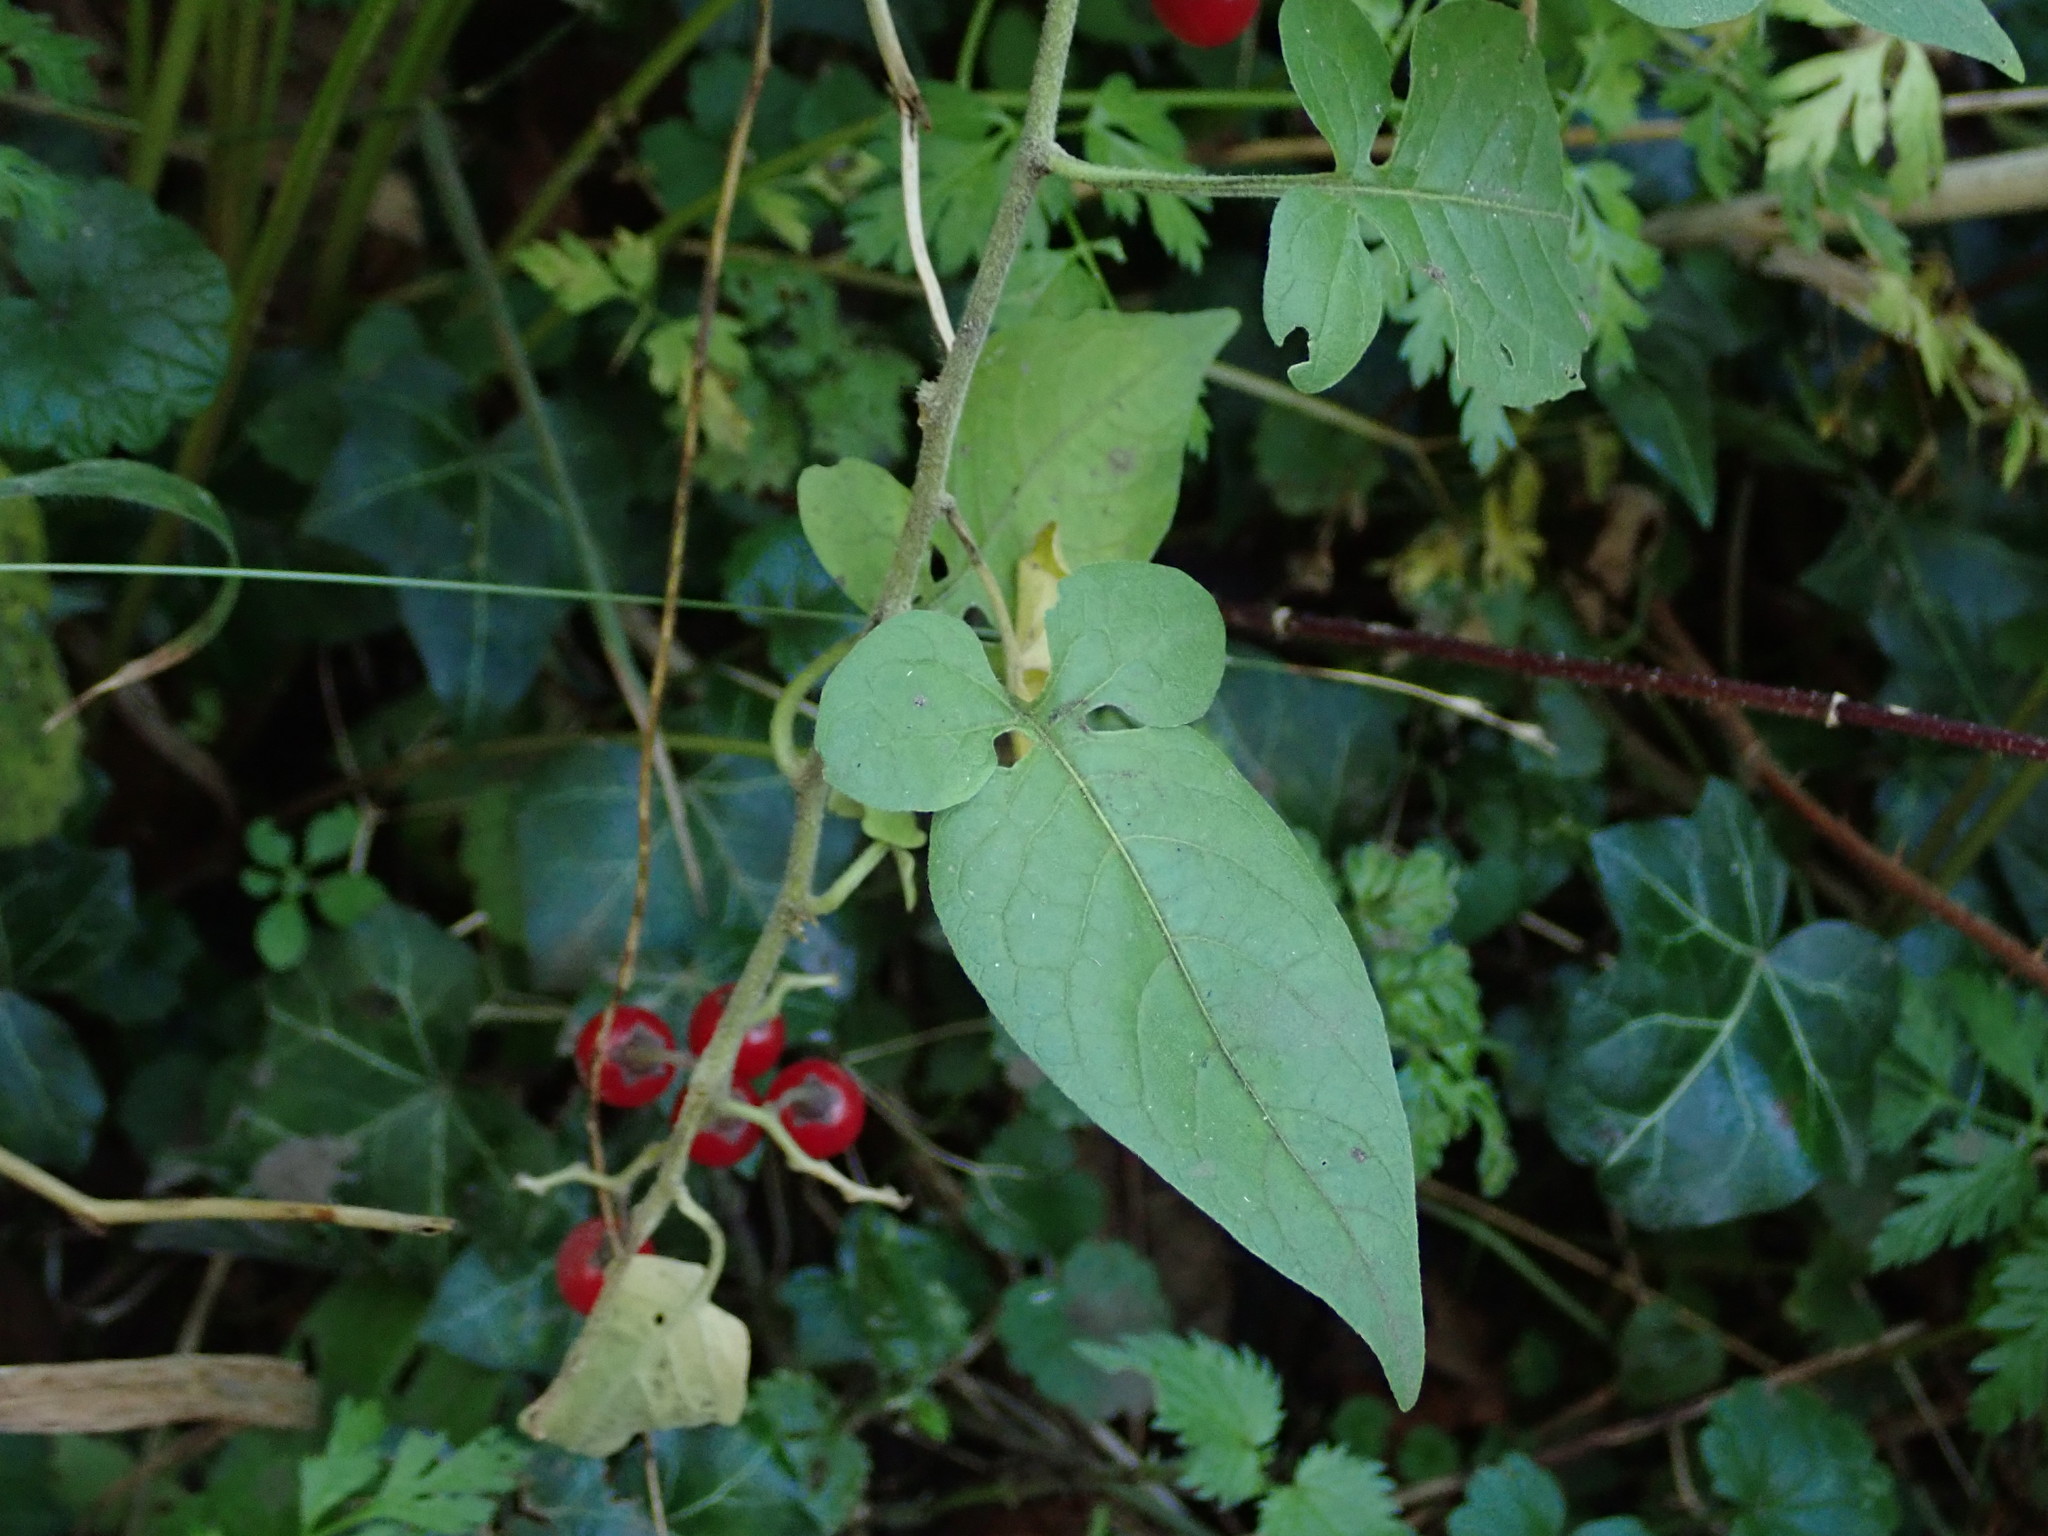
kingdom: Plantae
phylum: Tracheophyta
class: Magnoliopsida
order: Solanales
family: Solanaceae
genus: Solanum
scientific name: Solanum dulcamara
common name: Climbing nightshade
